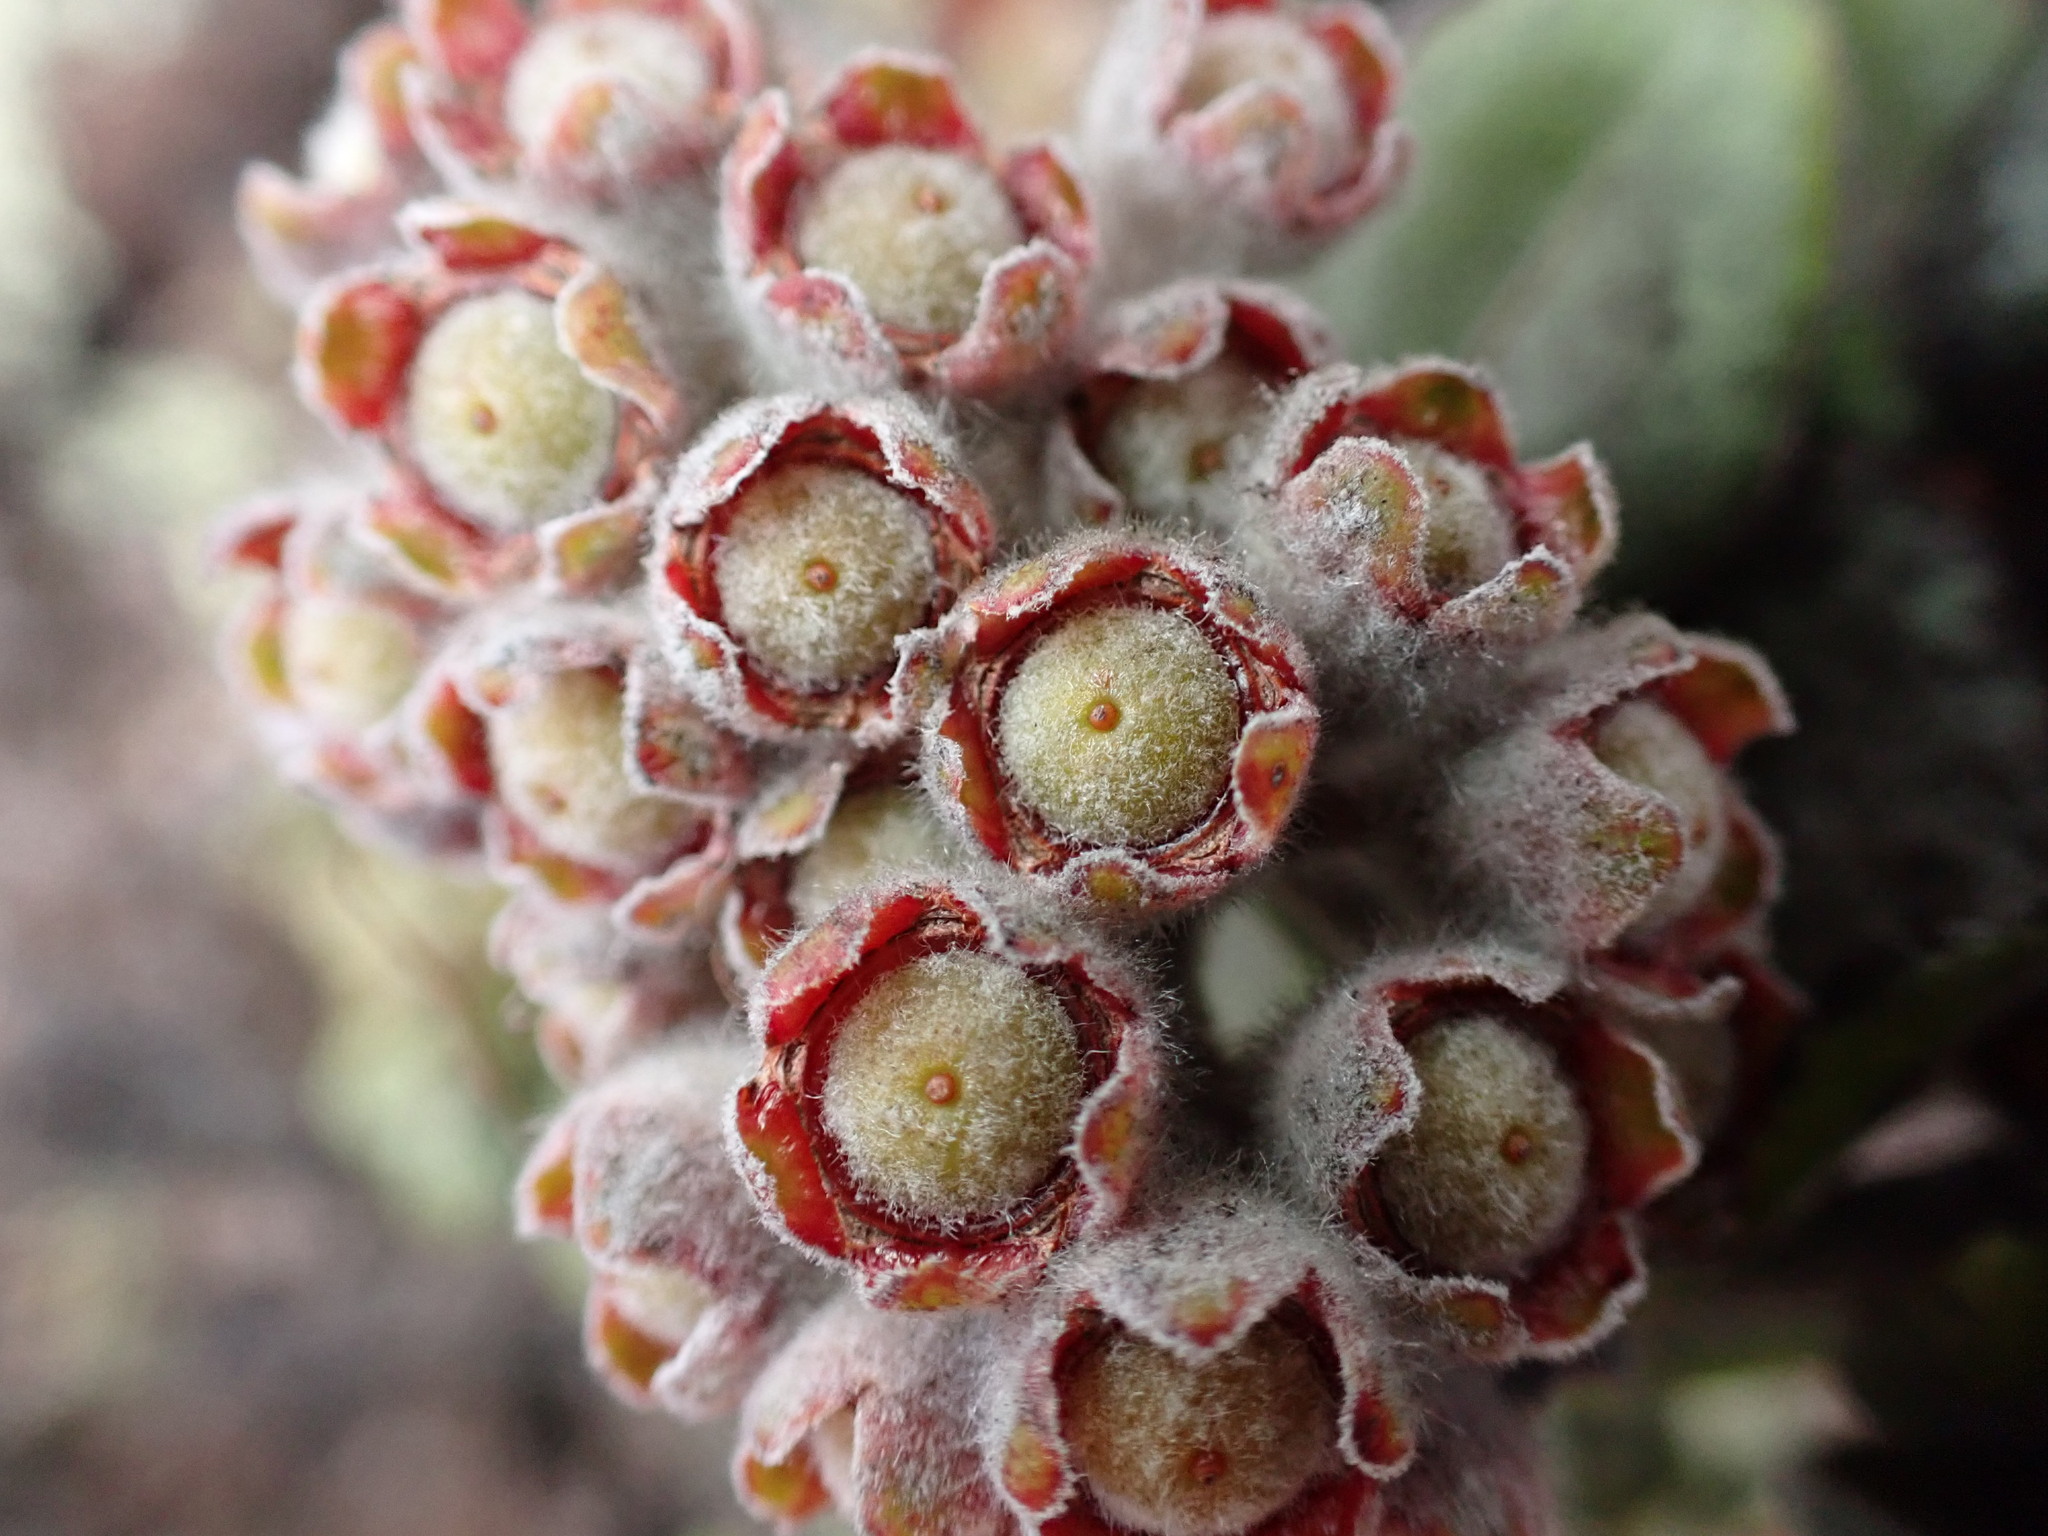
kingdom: Plantae
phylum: Tracheophyta
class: Magnoliopsida
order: Myrtales
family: Myrtaceae
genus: Metrosideros
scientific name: Metrosideros polymorpha
